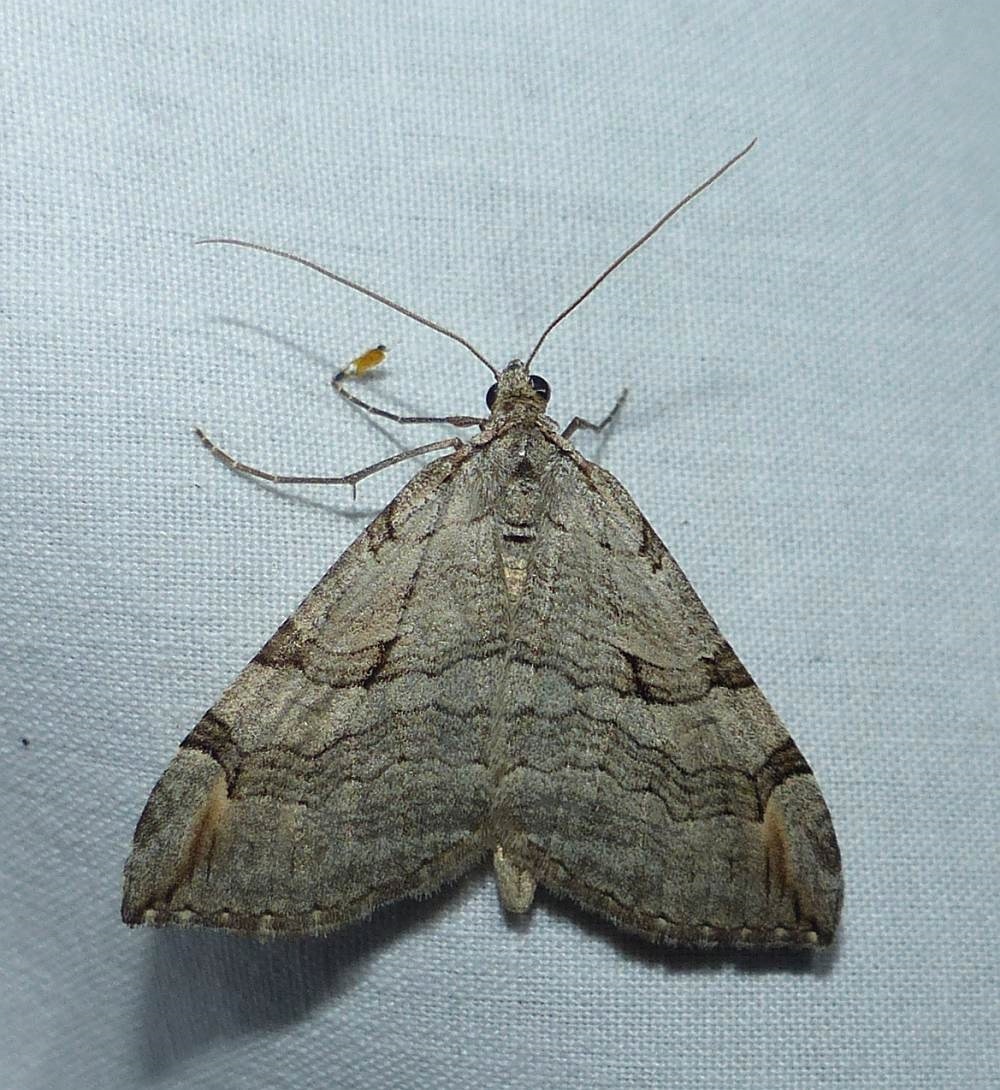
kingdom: Animalia
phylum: Arthropoda
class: Insecta
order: Lepidoptera
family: Geometridae
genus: Aplocera
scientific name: Aplocera plagiata
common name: Treble-bar
